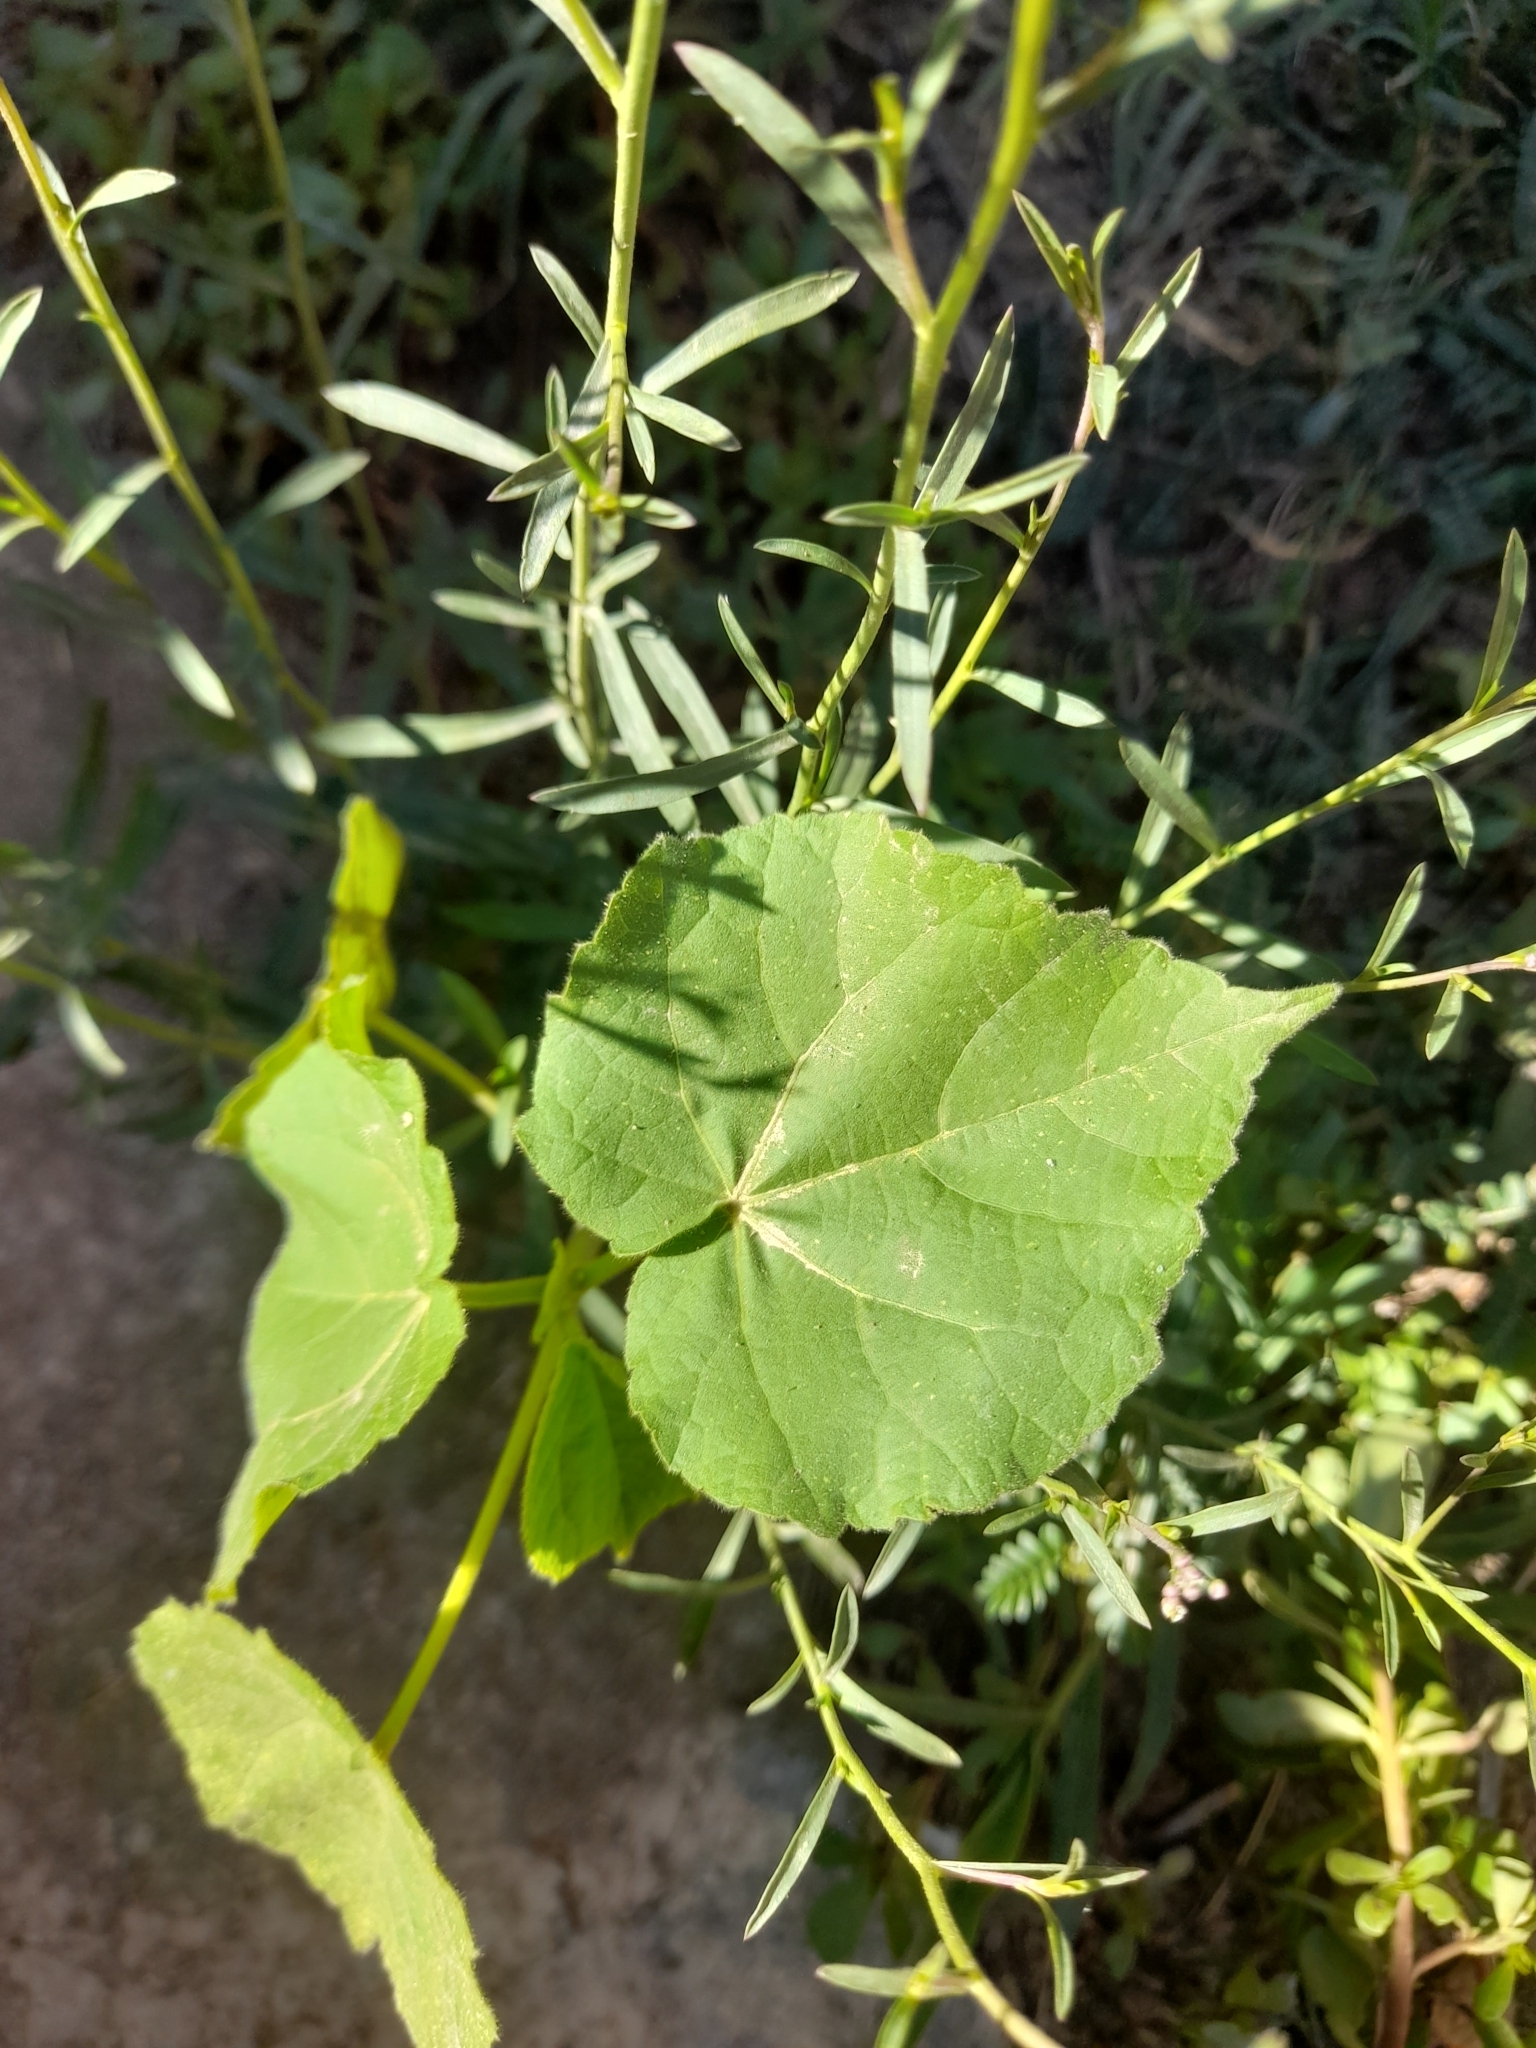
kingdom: Plantae
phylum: Tracheophyta
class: Magnoliopsida
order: Malvales
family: Malvaceae
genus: Abutilon
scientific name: Abutilon theophrasti
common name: Velvetleaf
